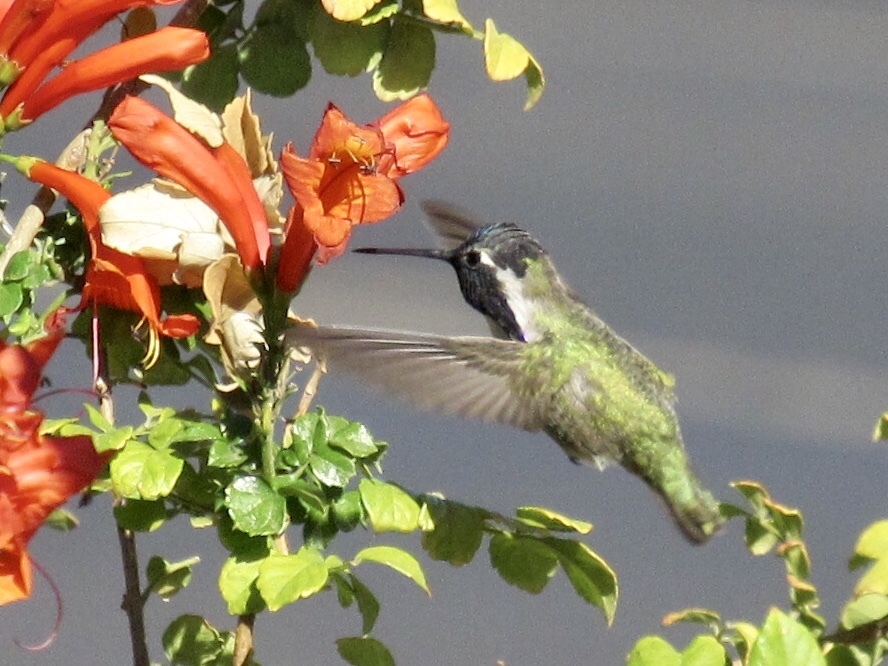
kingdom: Animalia
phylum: Chordata
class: Aves
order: Apodiformes
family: Trochilidae
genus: Calypte
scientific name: Calypte costae
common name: Costa's hummingbird
